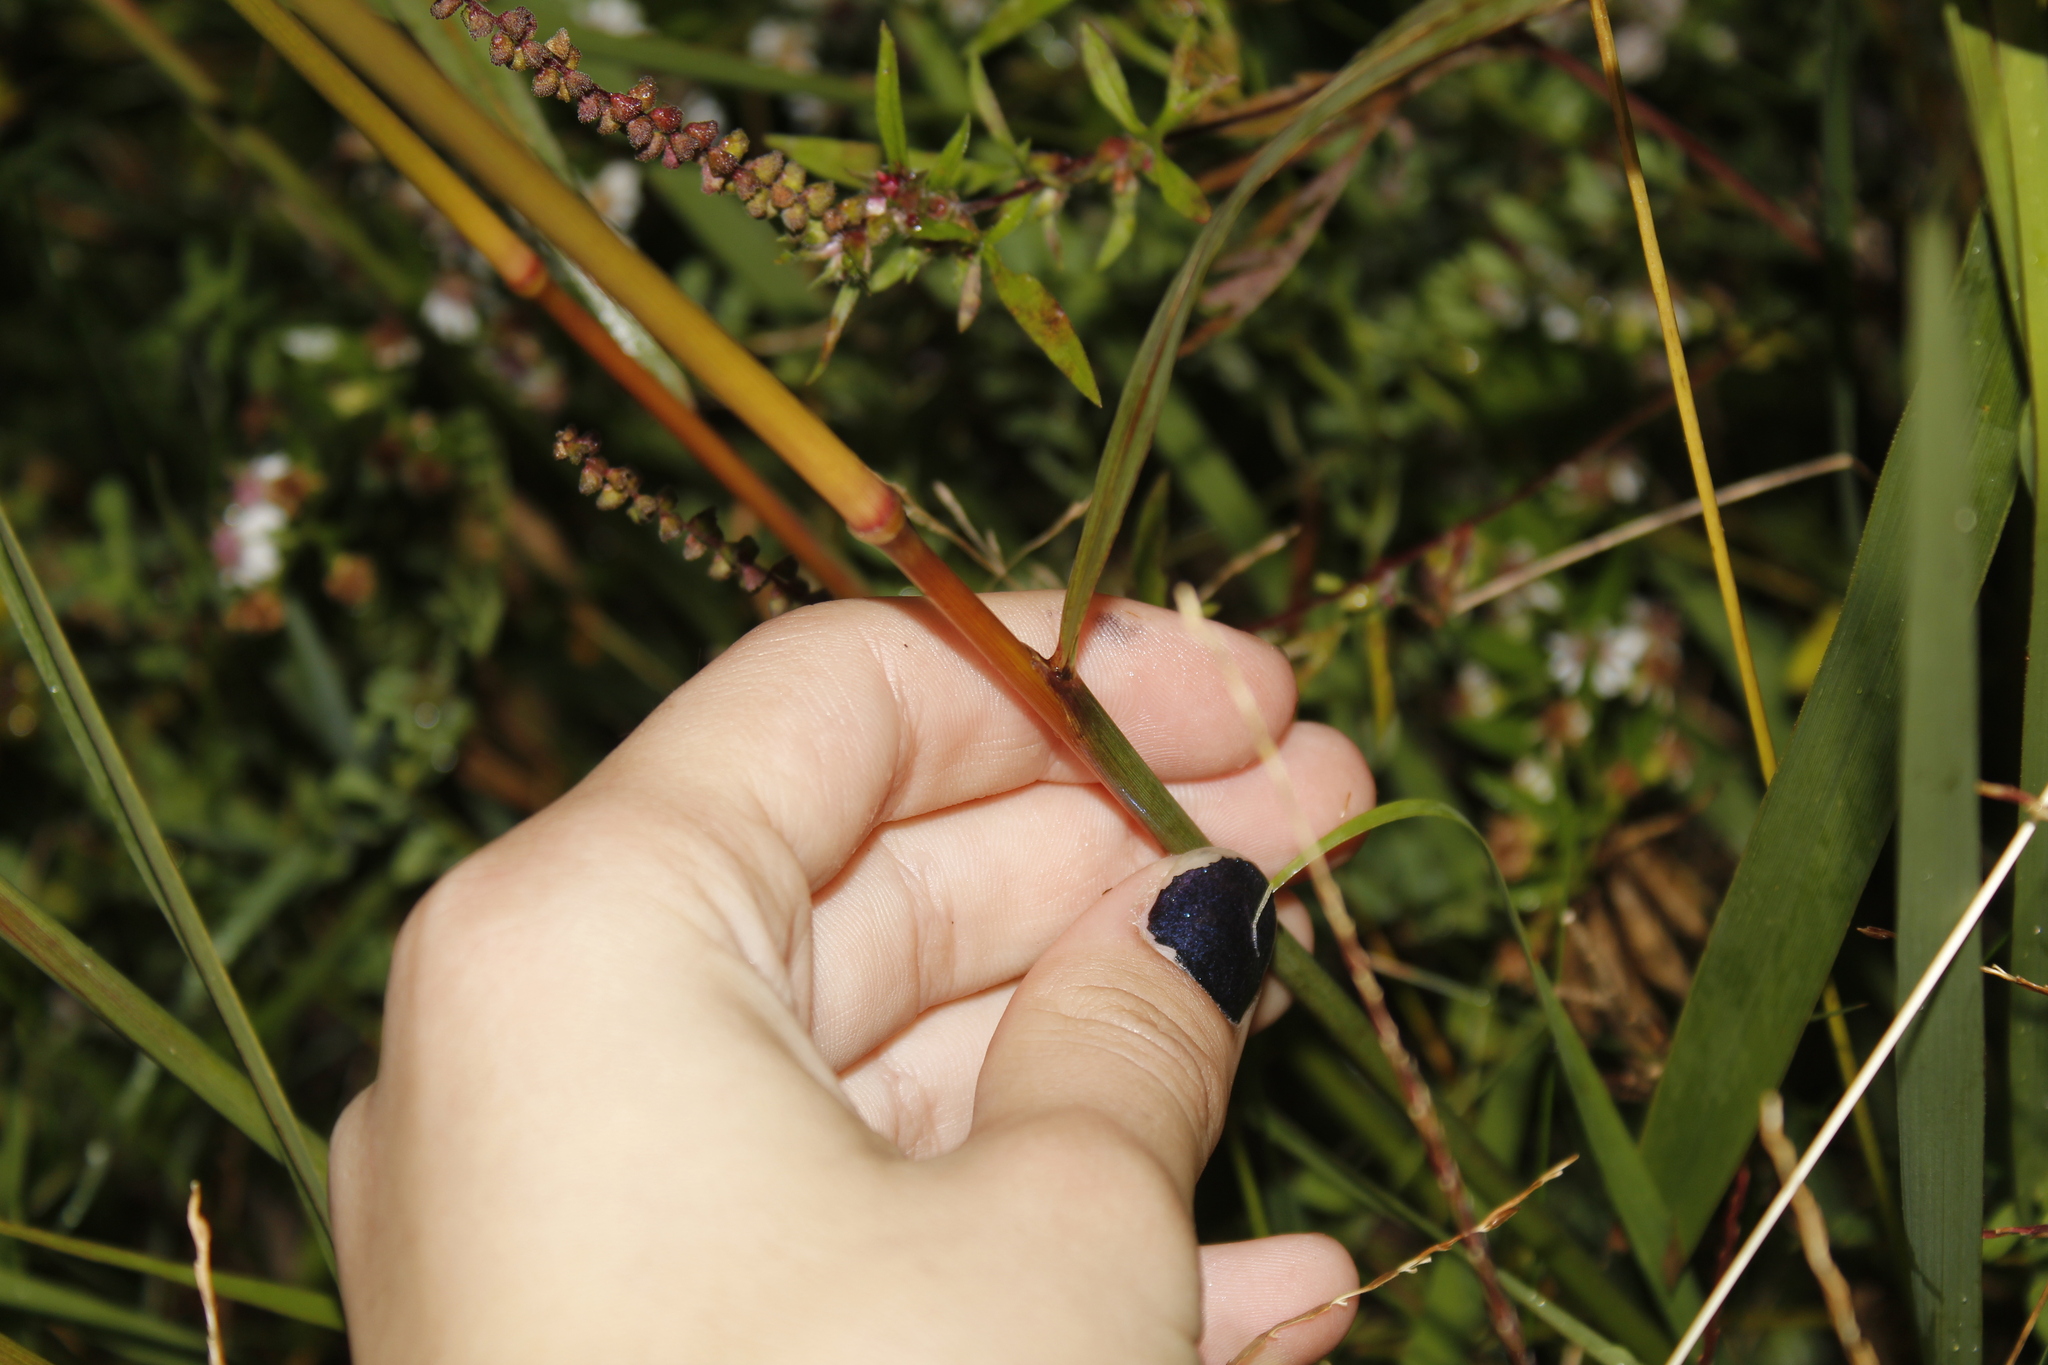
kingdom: Plantae
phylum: Tracheophyta
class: Liliopsida
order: Poales
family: Poaceae
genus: Sorghastrum
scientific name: Sorghastrum nutans
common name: Indian grass
